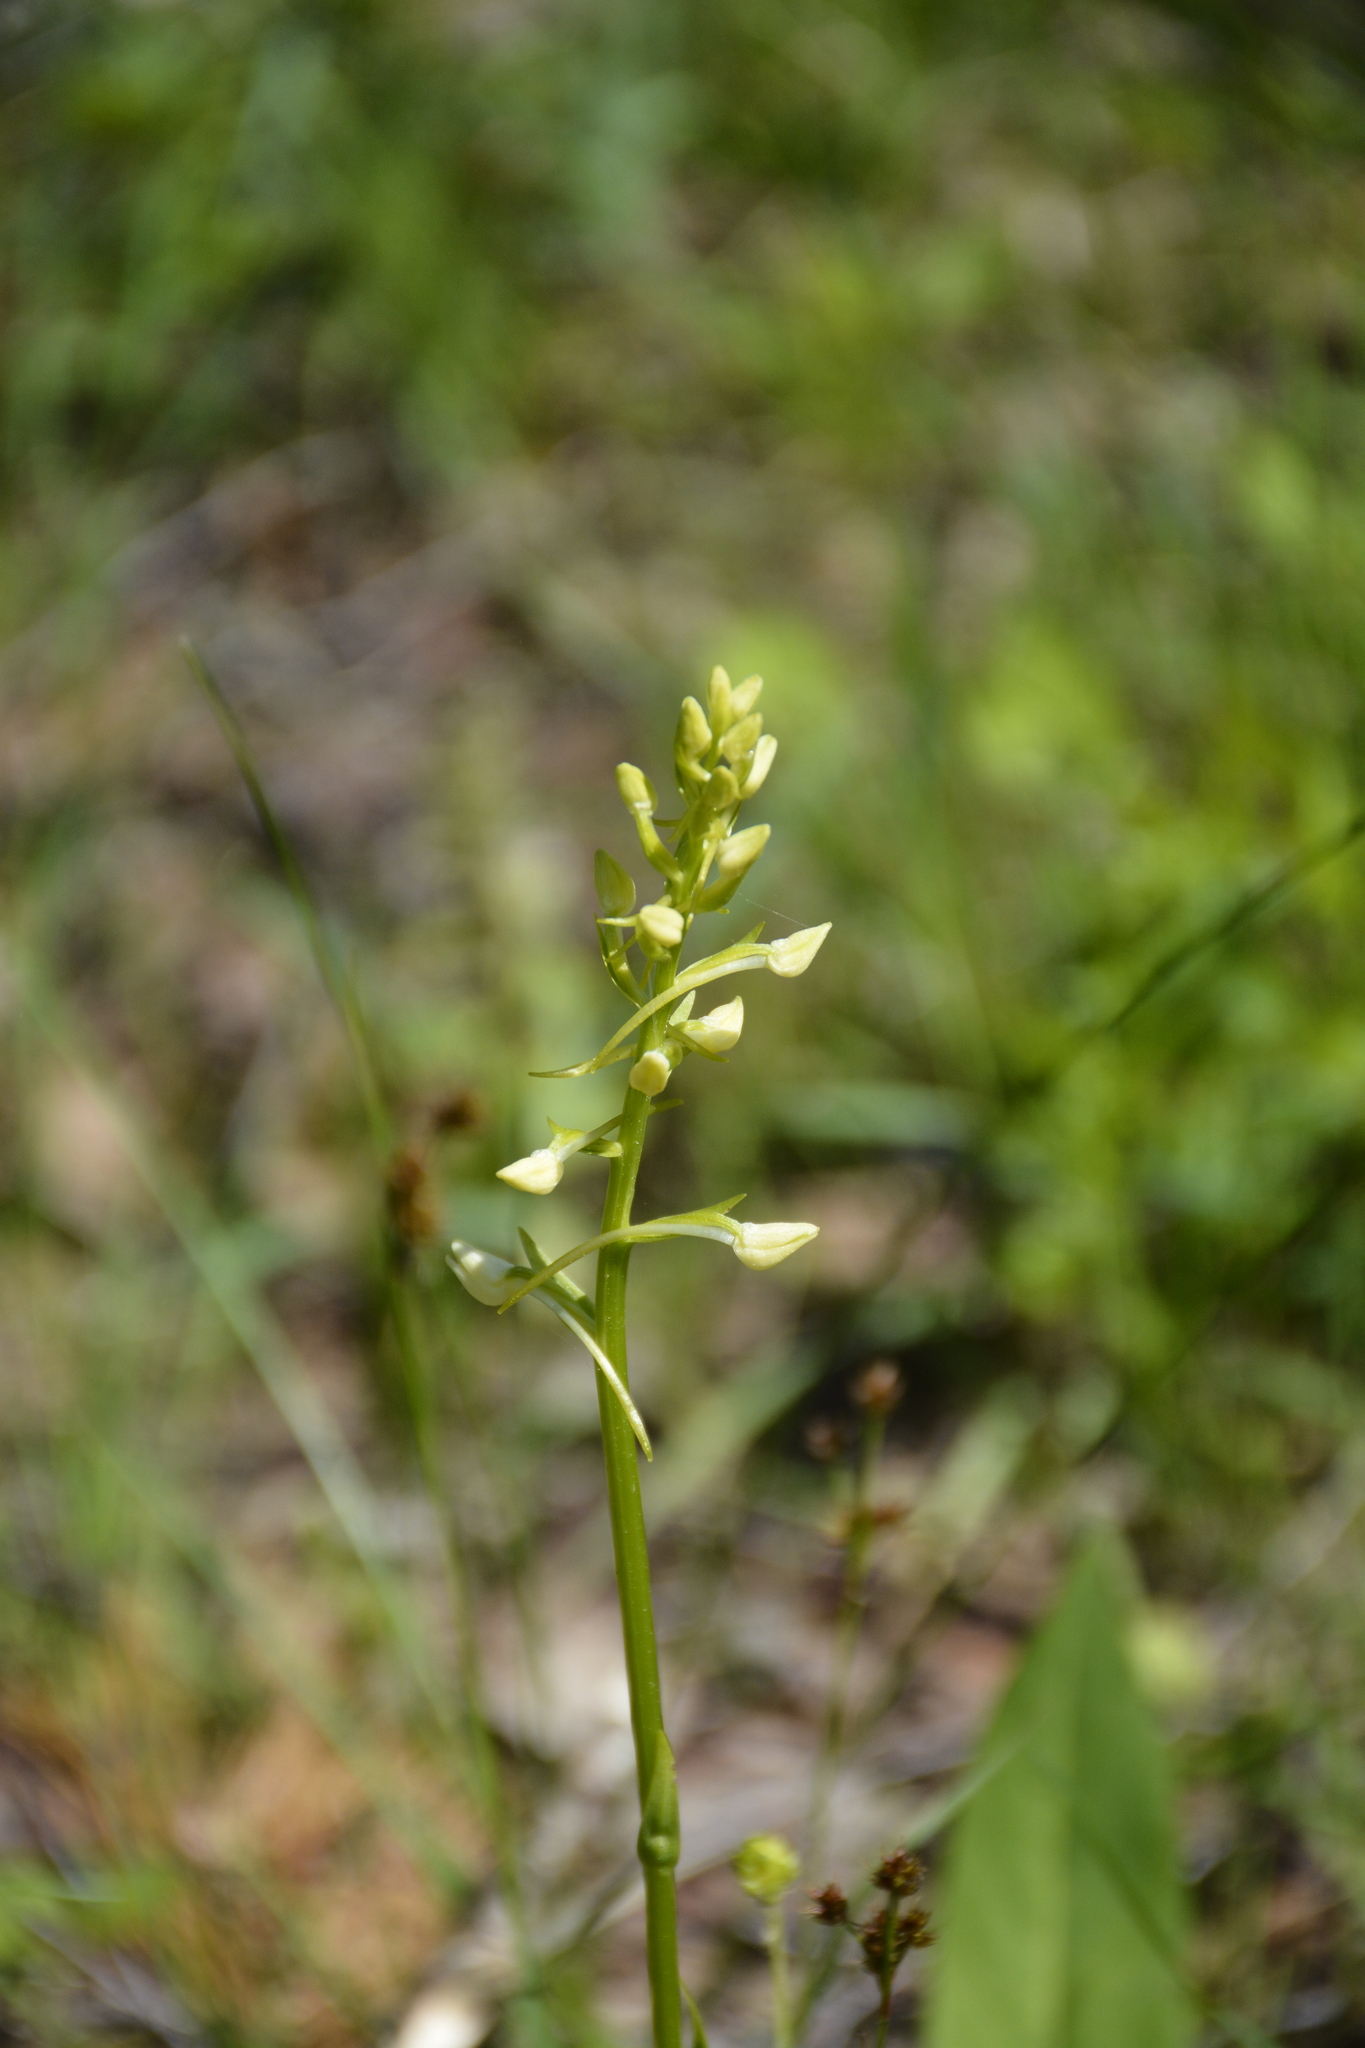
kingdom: Plantae
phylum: Tracheophyta
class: Liliopsida
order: Asparagales
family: Orchidaceae
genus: Platanthera
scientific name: Platanthera bifolia
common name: Lesser butterfly-orchid
